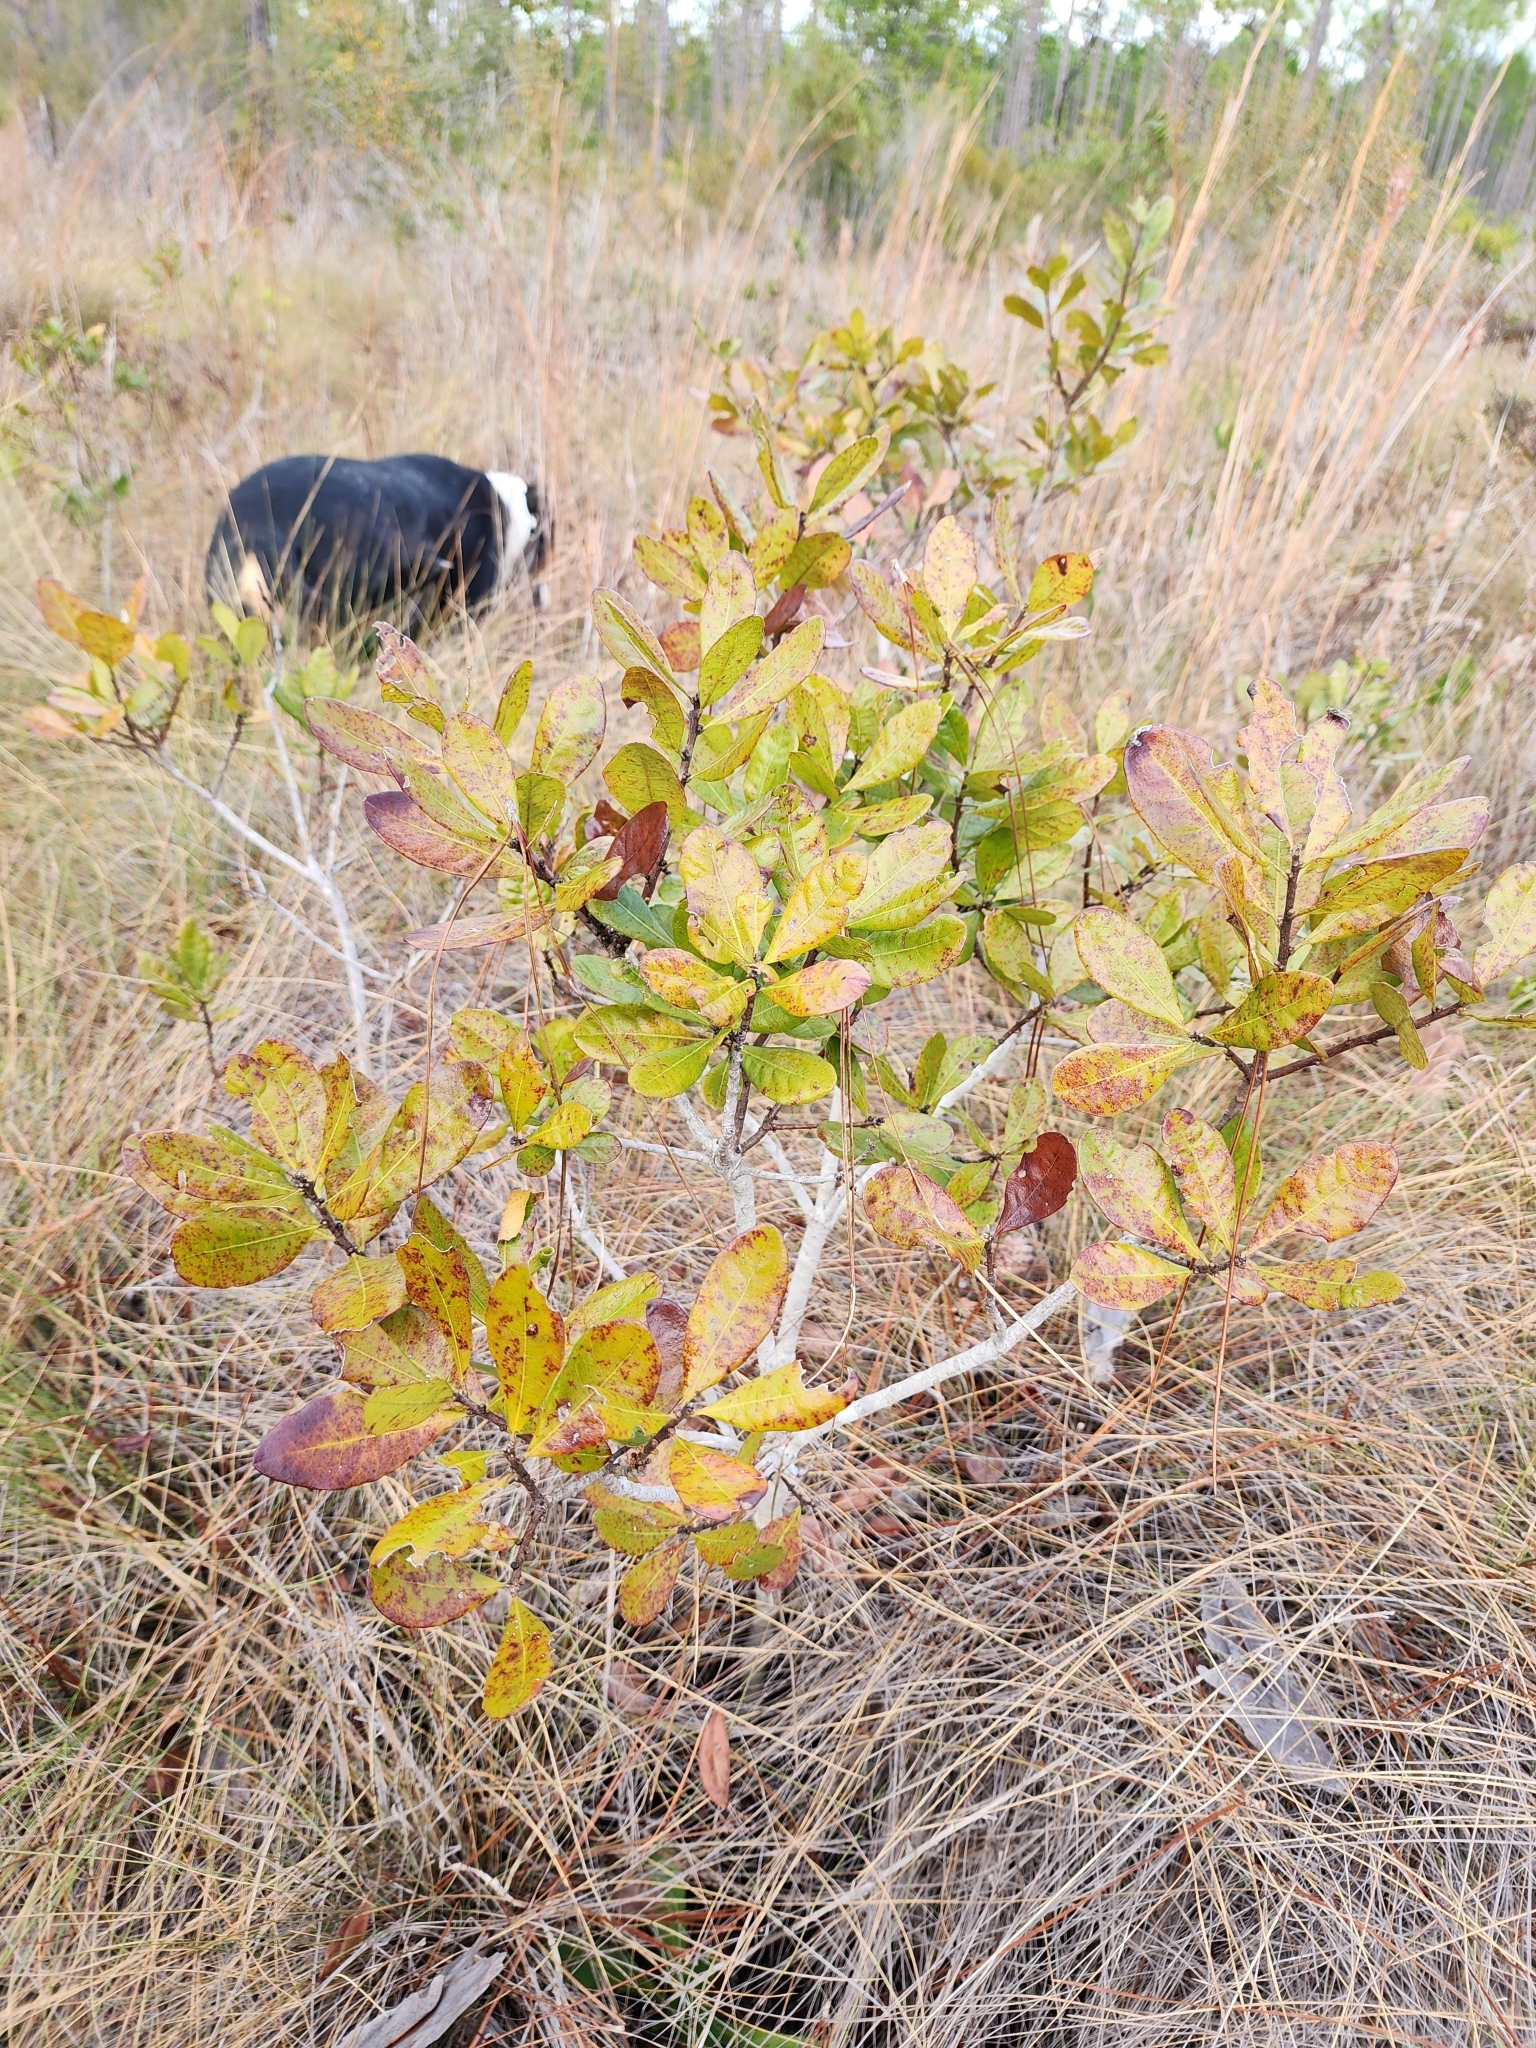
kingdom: Plantae
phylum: Tracheophyta
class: Magnoliopsida
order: Fagales
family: Myricaceae
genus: Morella
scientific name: Morella caroliniensis
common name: Evergreen bayberry
